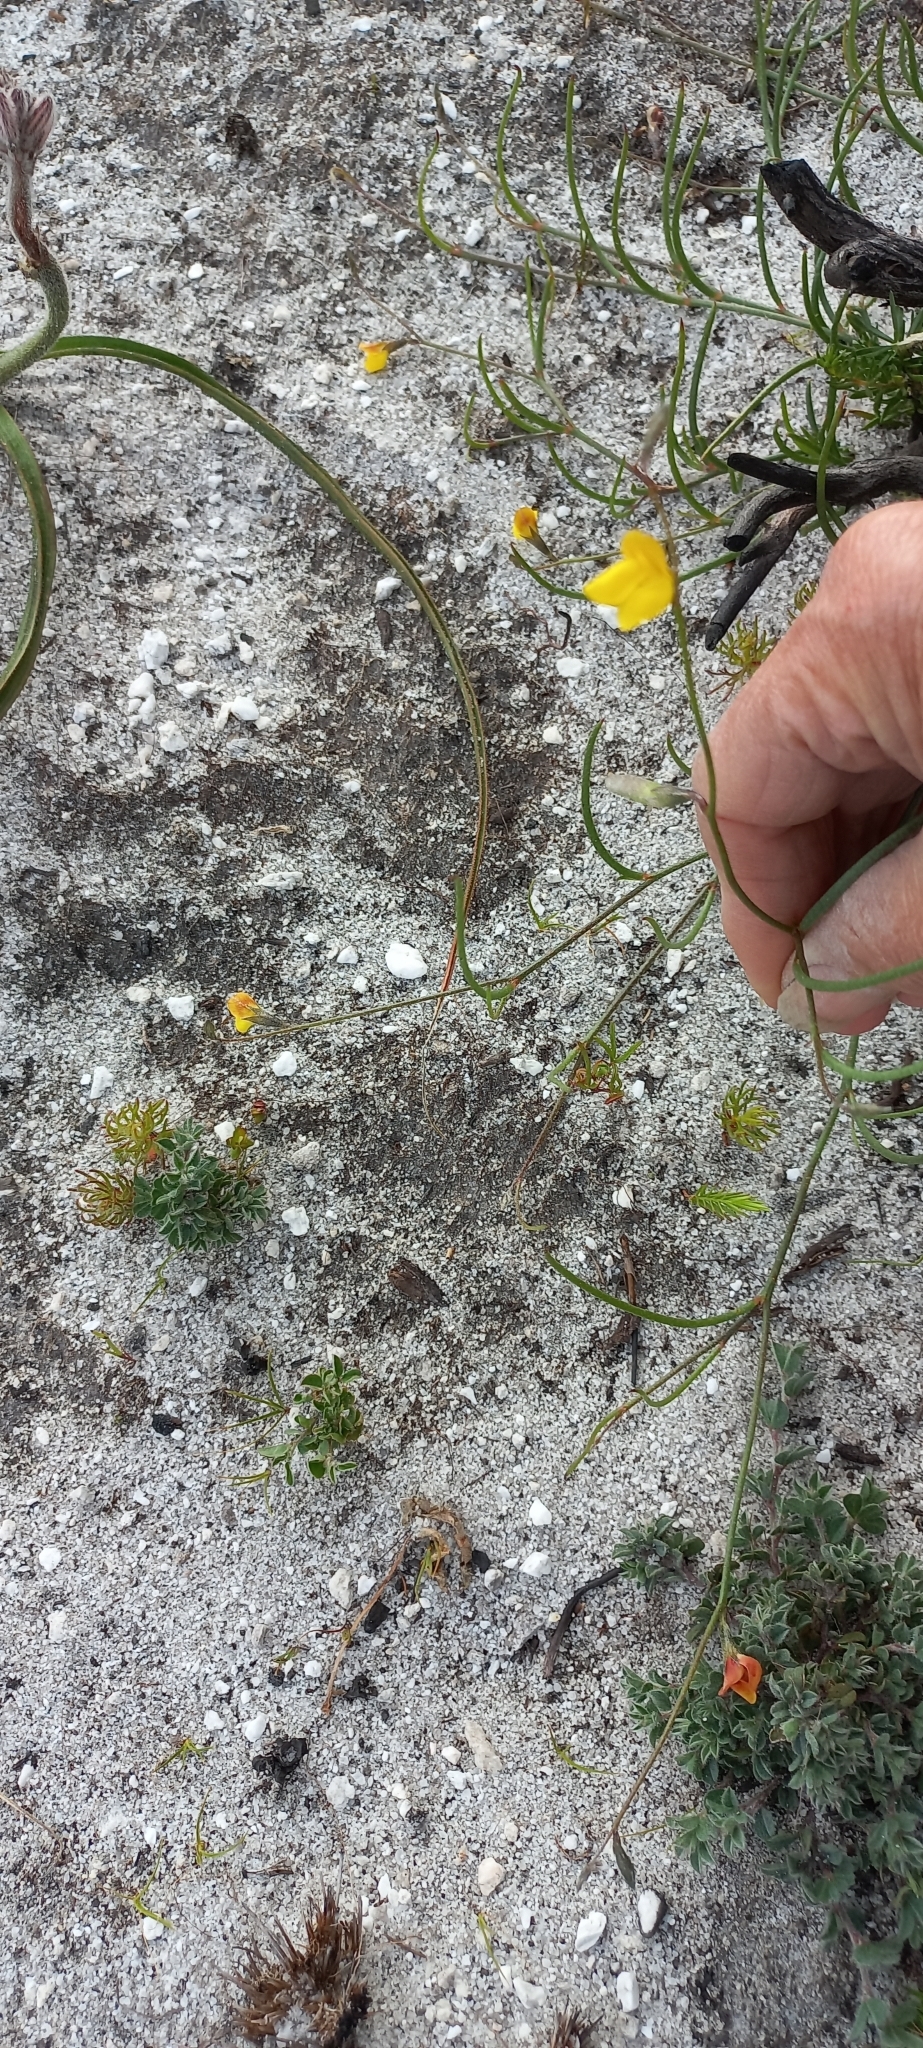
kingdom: Plantae
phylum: Tracheophyta
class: Magnoliopsida
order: Fabales
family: Fabaceae
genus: Lebeckia
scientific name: Lebeckia wrightii
